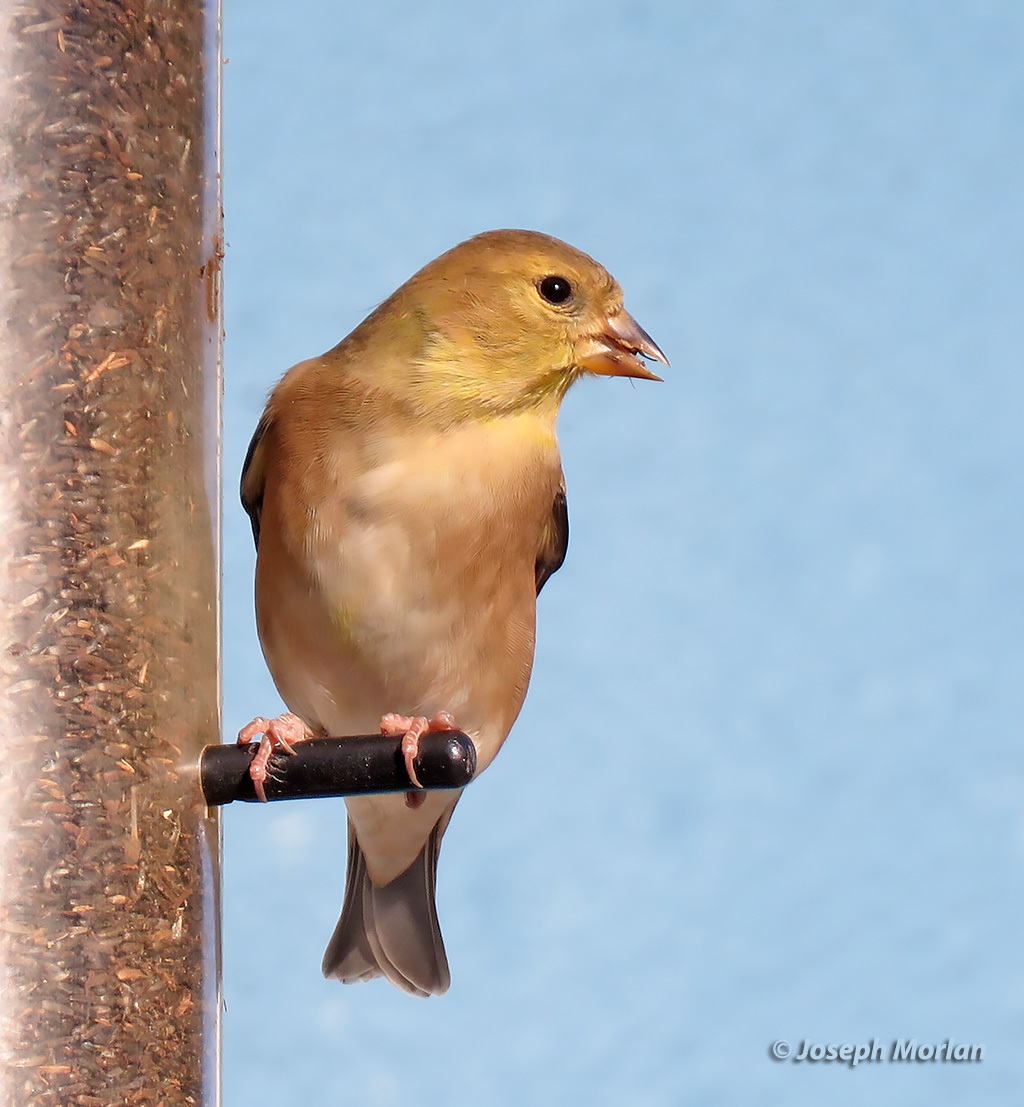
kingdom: Animalia
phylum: Chordata
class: Aves
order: Passeriformes
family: Fringillidae
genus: Spinus
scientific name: Spinus tristis
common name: American goldfinch
